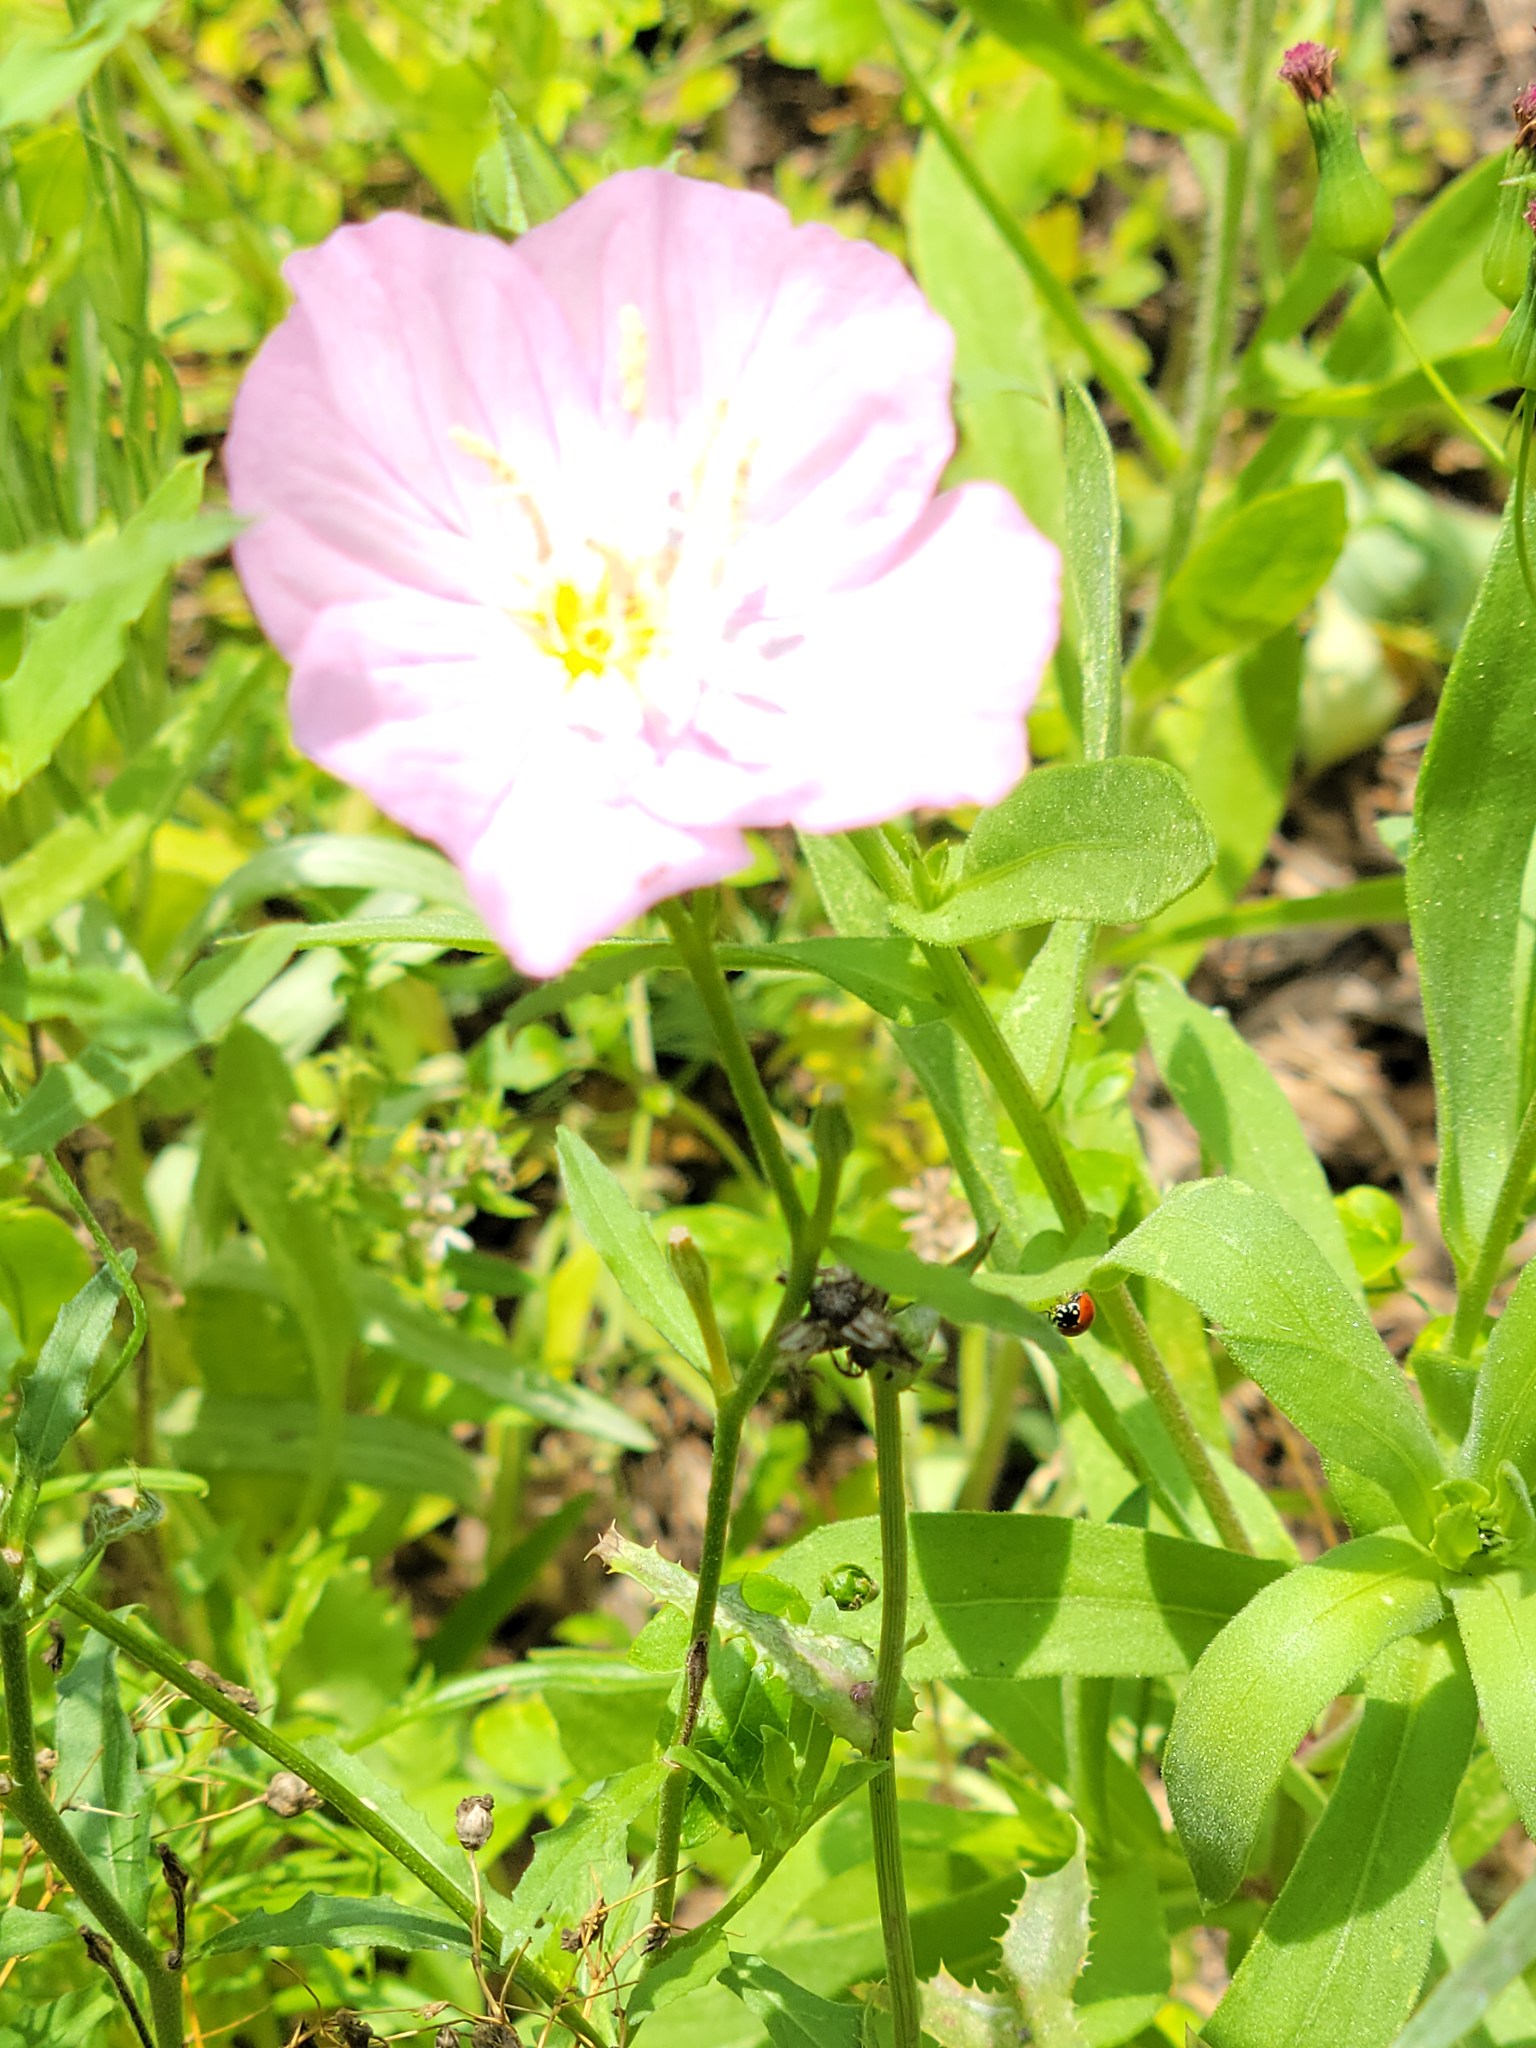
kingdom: Plantae
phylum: Tracheophyta
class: Magnoliopsida
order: Myrtales
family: Onagraceae
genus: Oenothera
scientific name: Oenothera speciosa
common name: White evening-primrose
